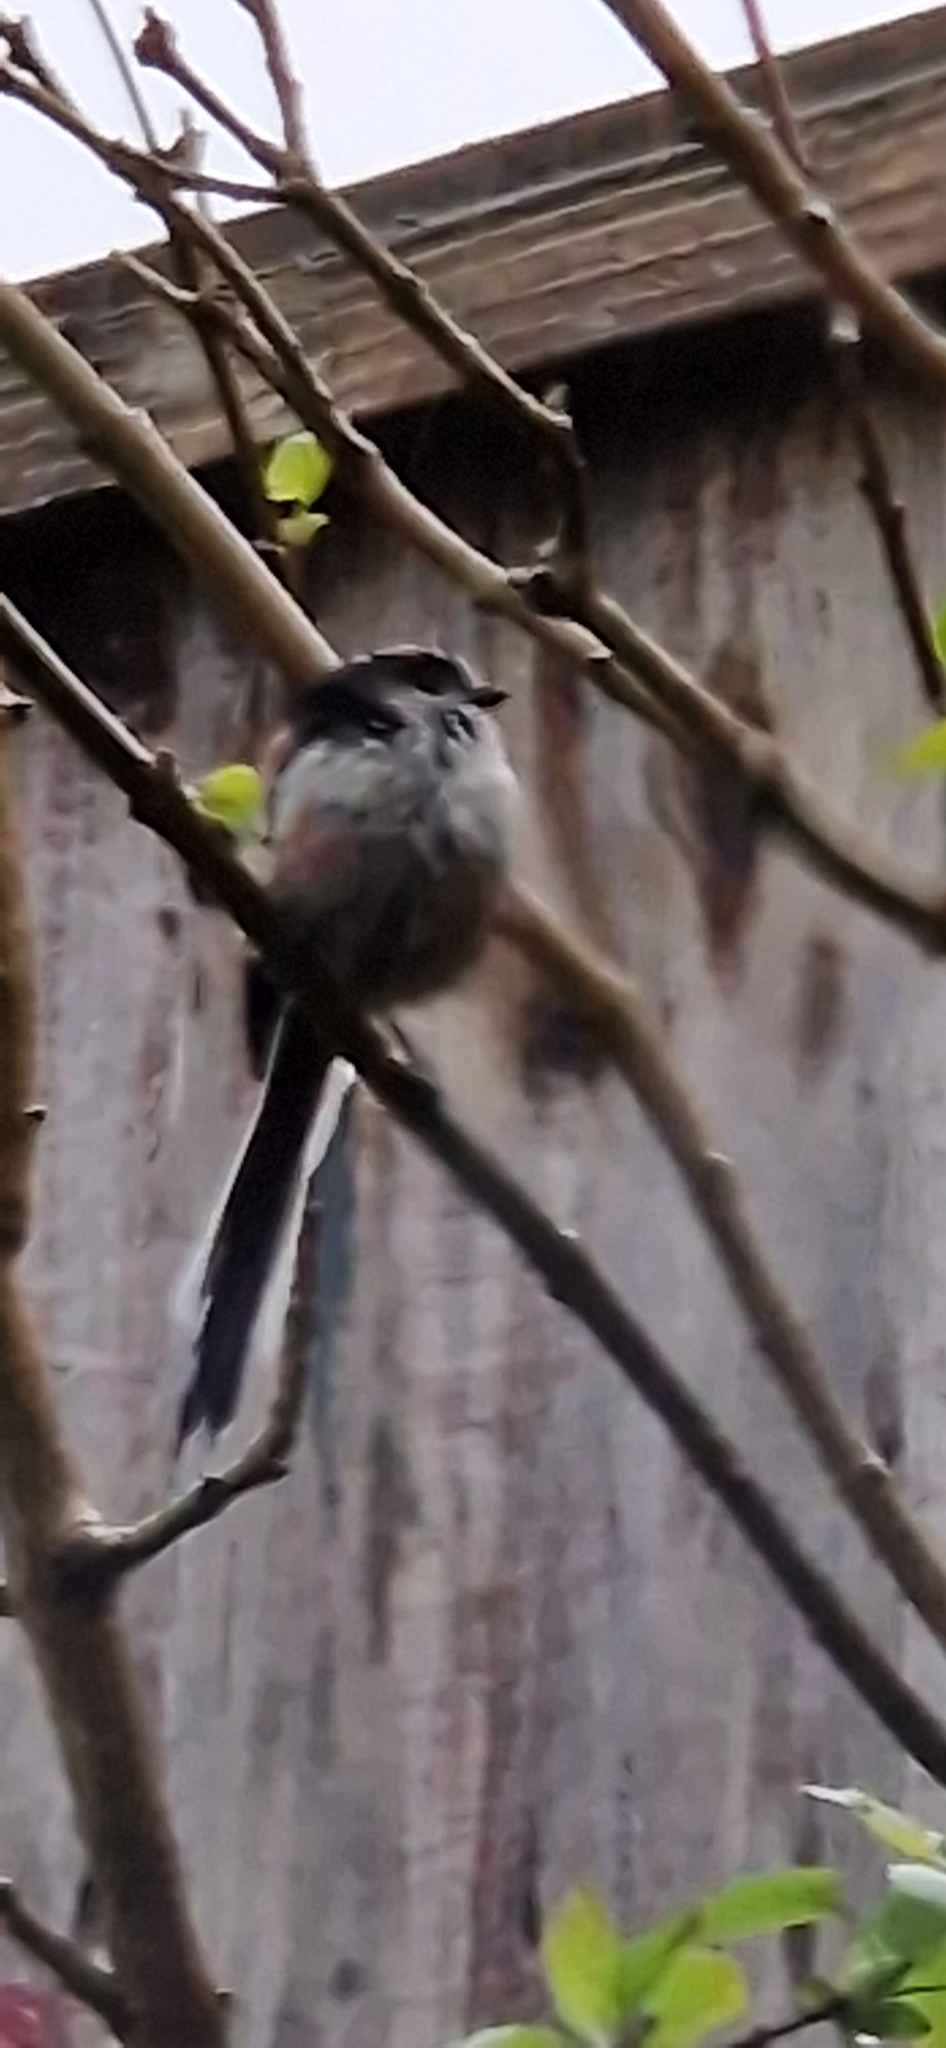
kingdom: Animalia
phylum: Chordata
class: Aves
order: Passeriformes
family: Aegithalidae
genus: Aegithalos
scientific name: Aegithalos caudatus
